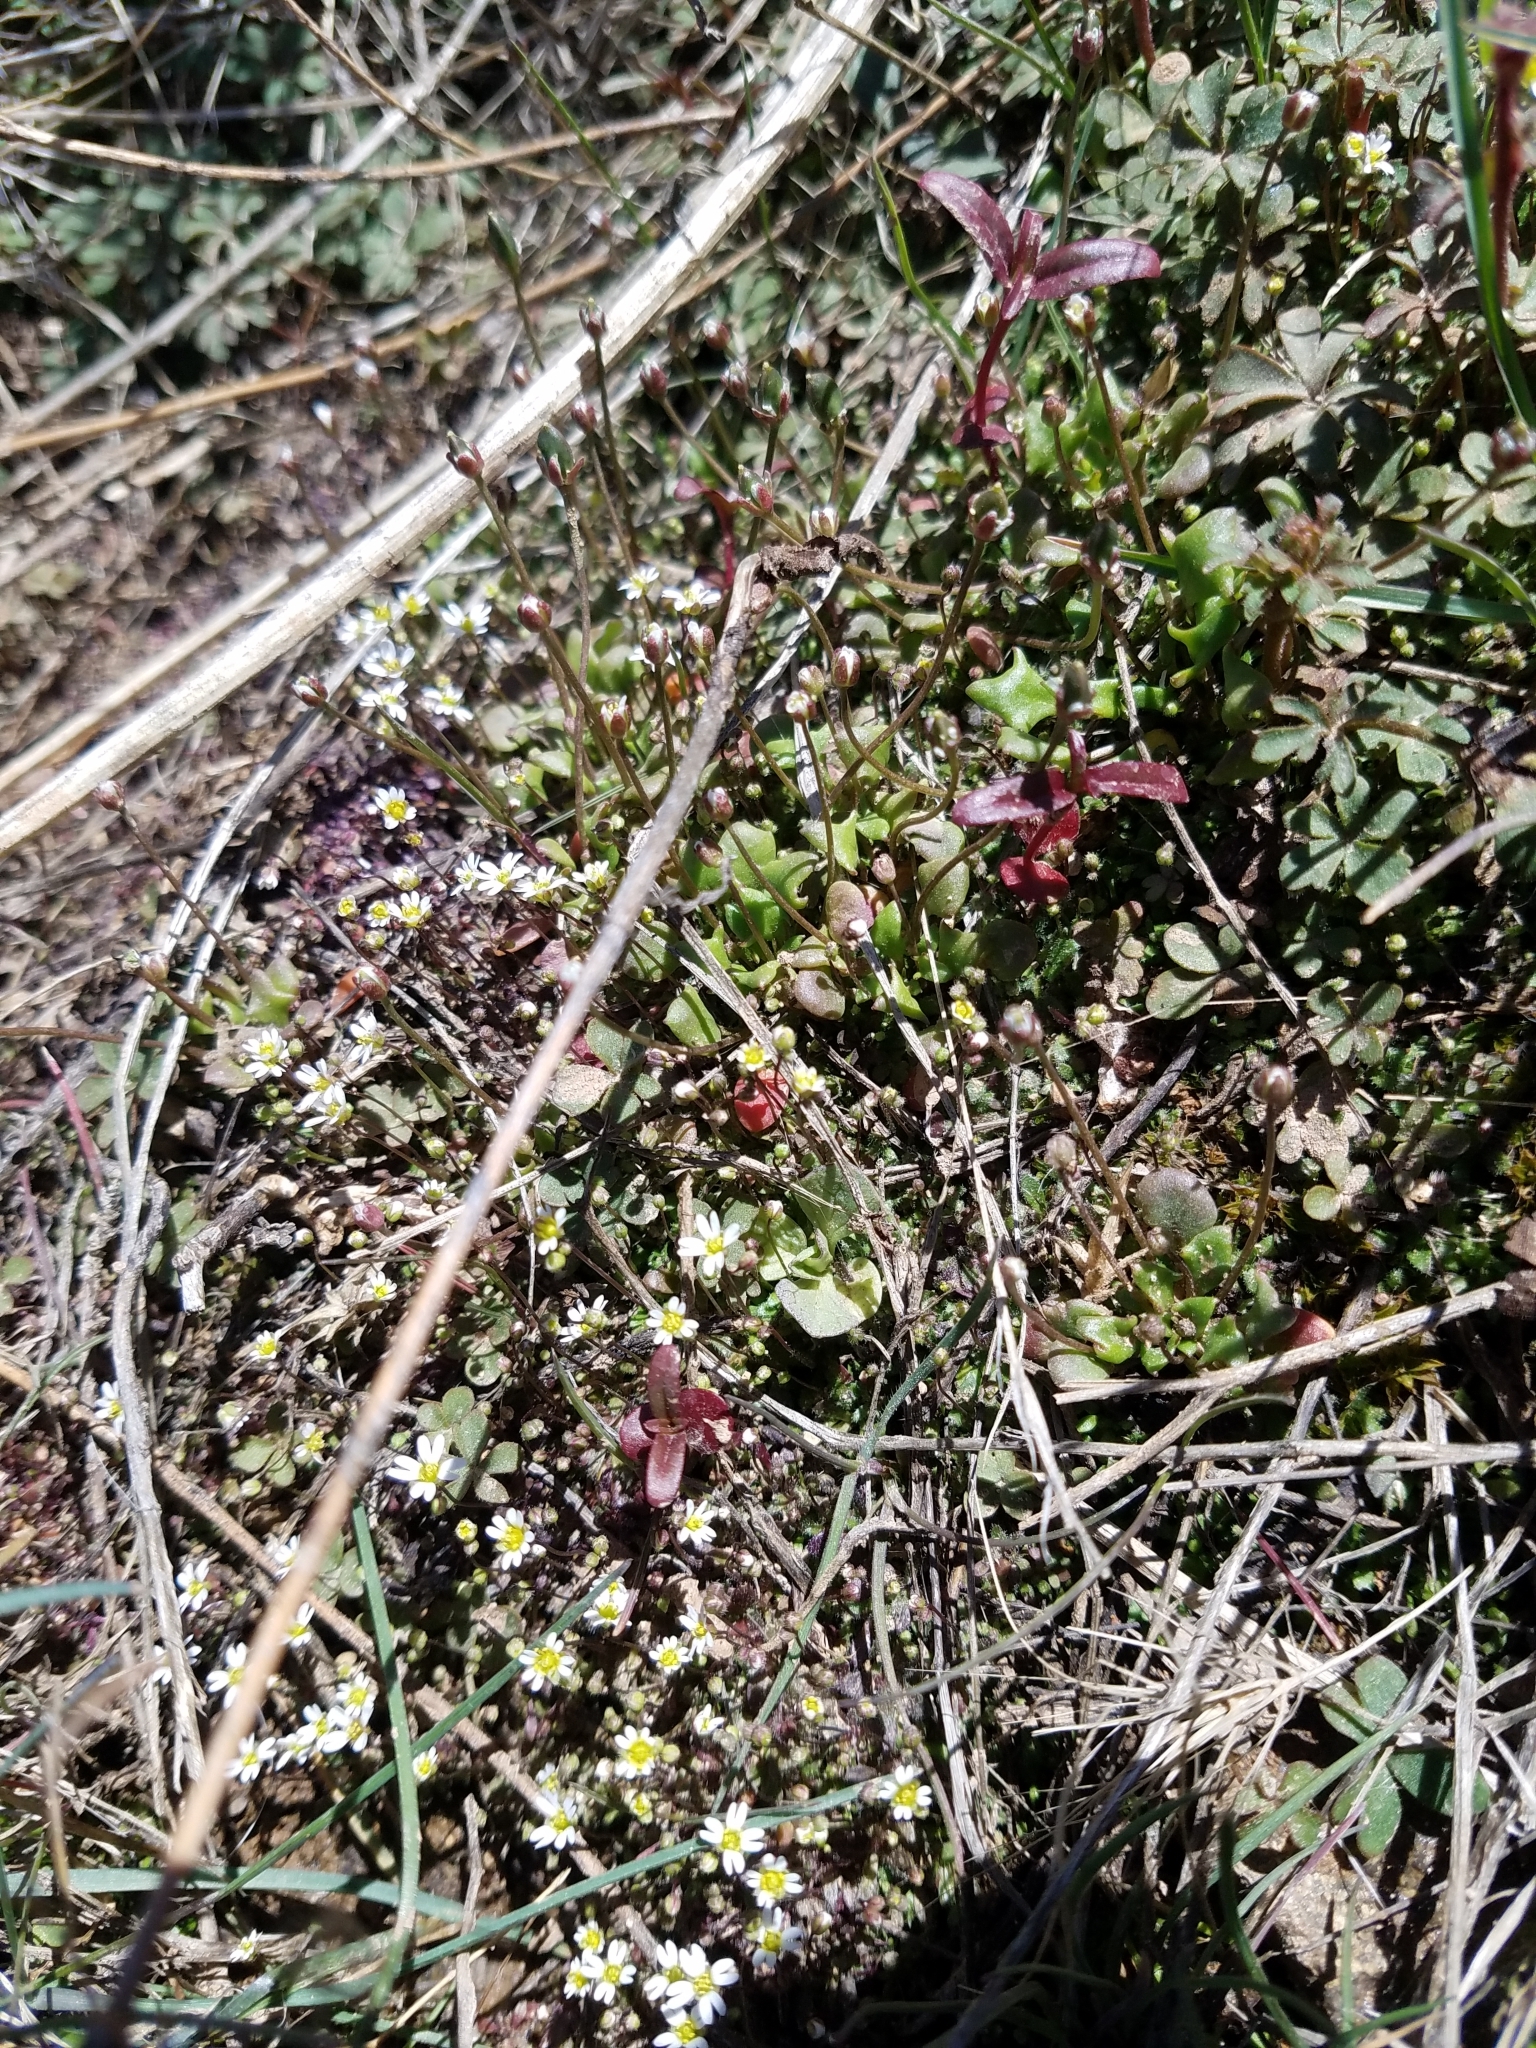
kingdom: Plantae
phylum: Tracheophyta
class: Magnoliopsida
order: Brassicales
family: Brassicaceae
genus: Draba
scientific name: Draba verna
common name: Spring draba
